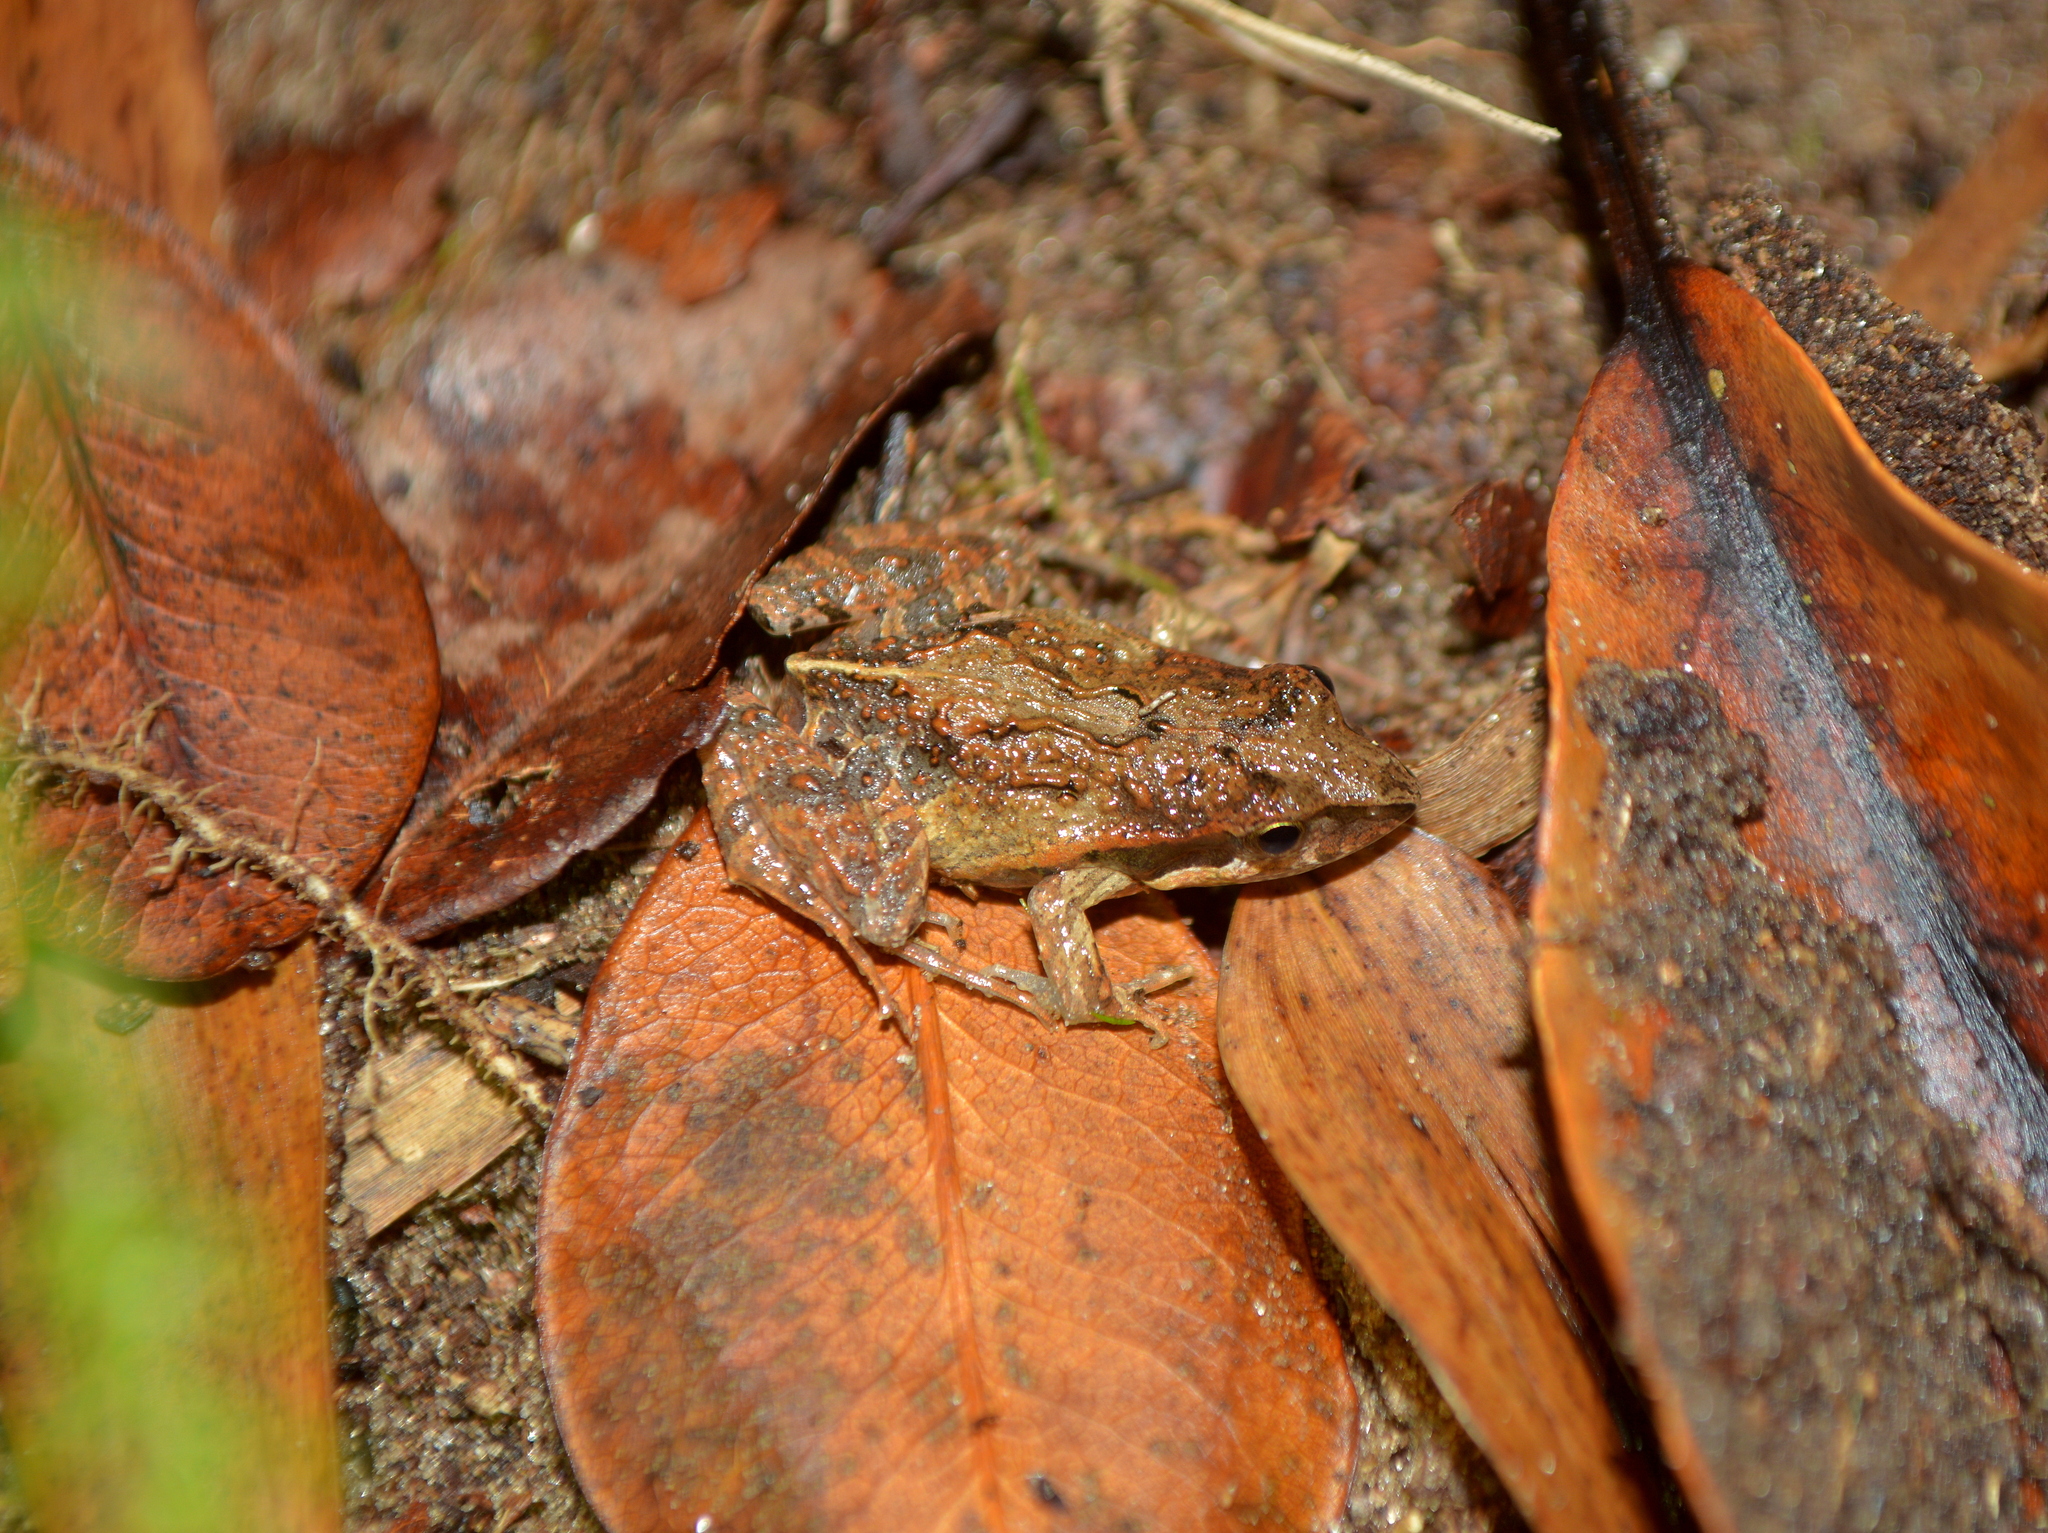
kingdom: Animalia
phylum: Chordata
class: Amphibia
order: Anura
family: Leptodactylidae
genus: Physalaemus
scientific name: Physalaemus gracilis
